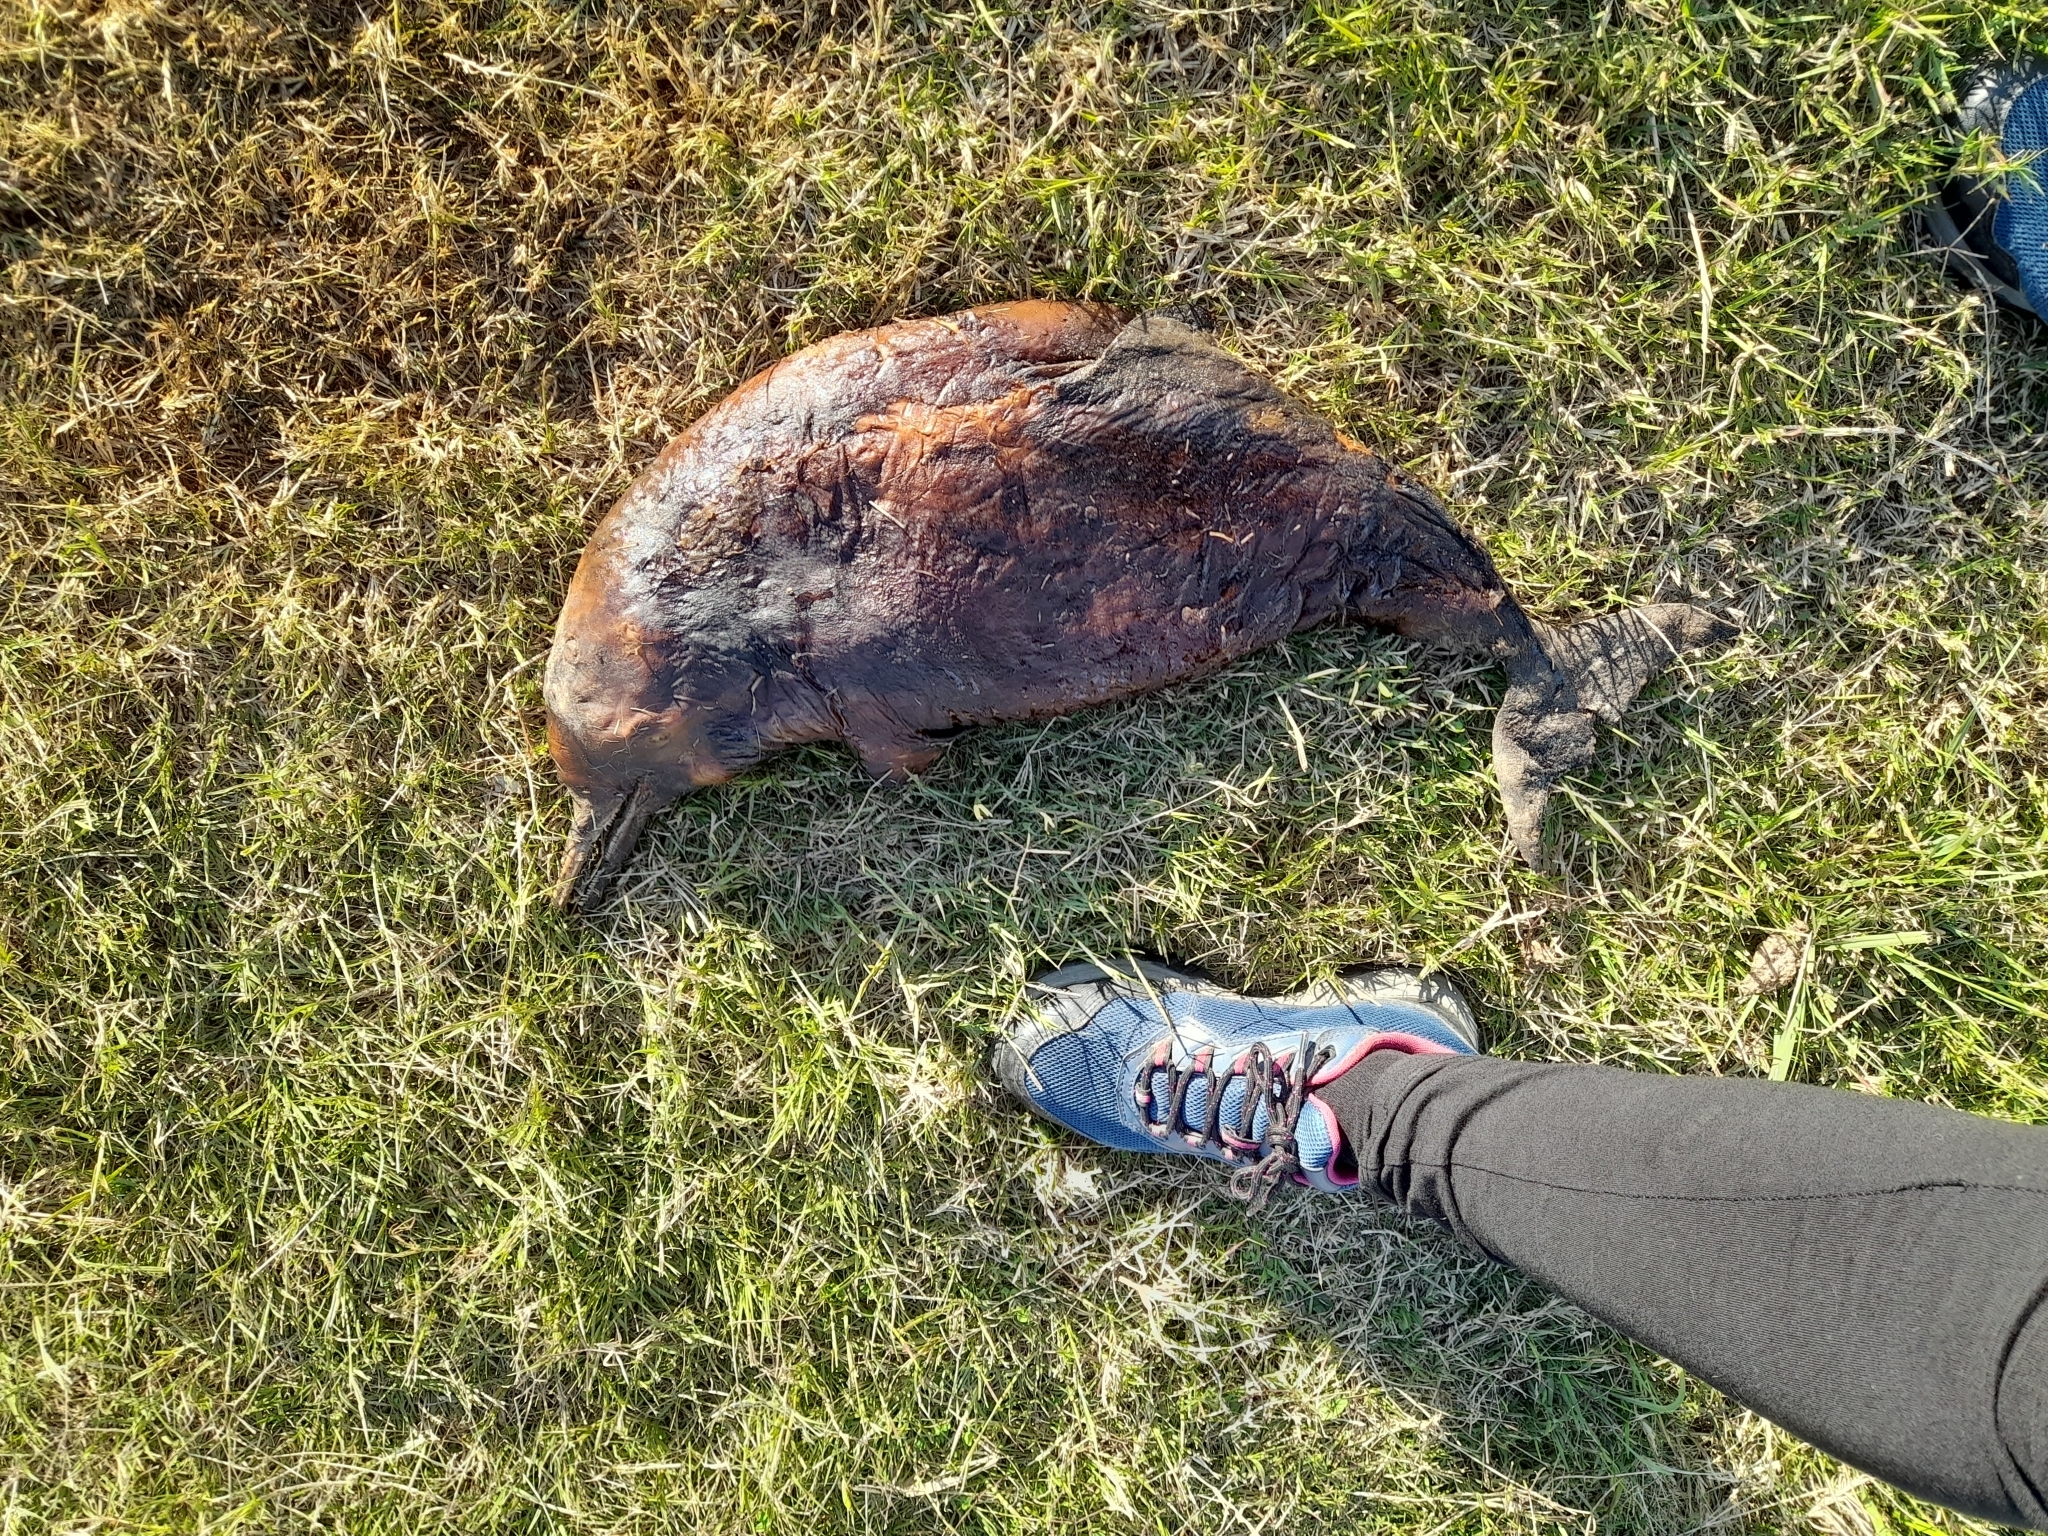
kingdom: Animalia
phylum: Chordata
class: Mammalia
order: Cetacea
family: Pontoporiidae
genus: Pontoporia
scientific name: Pontoporia blainvillei
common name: Franciscana
